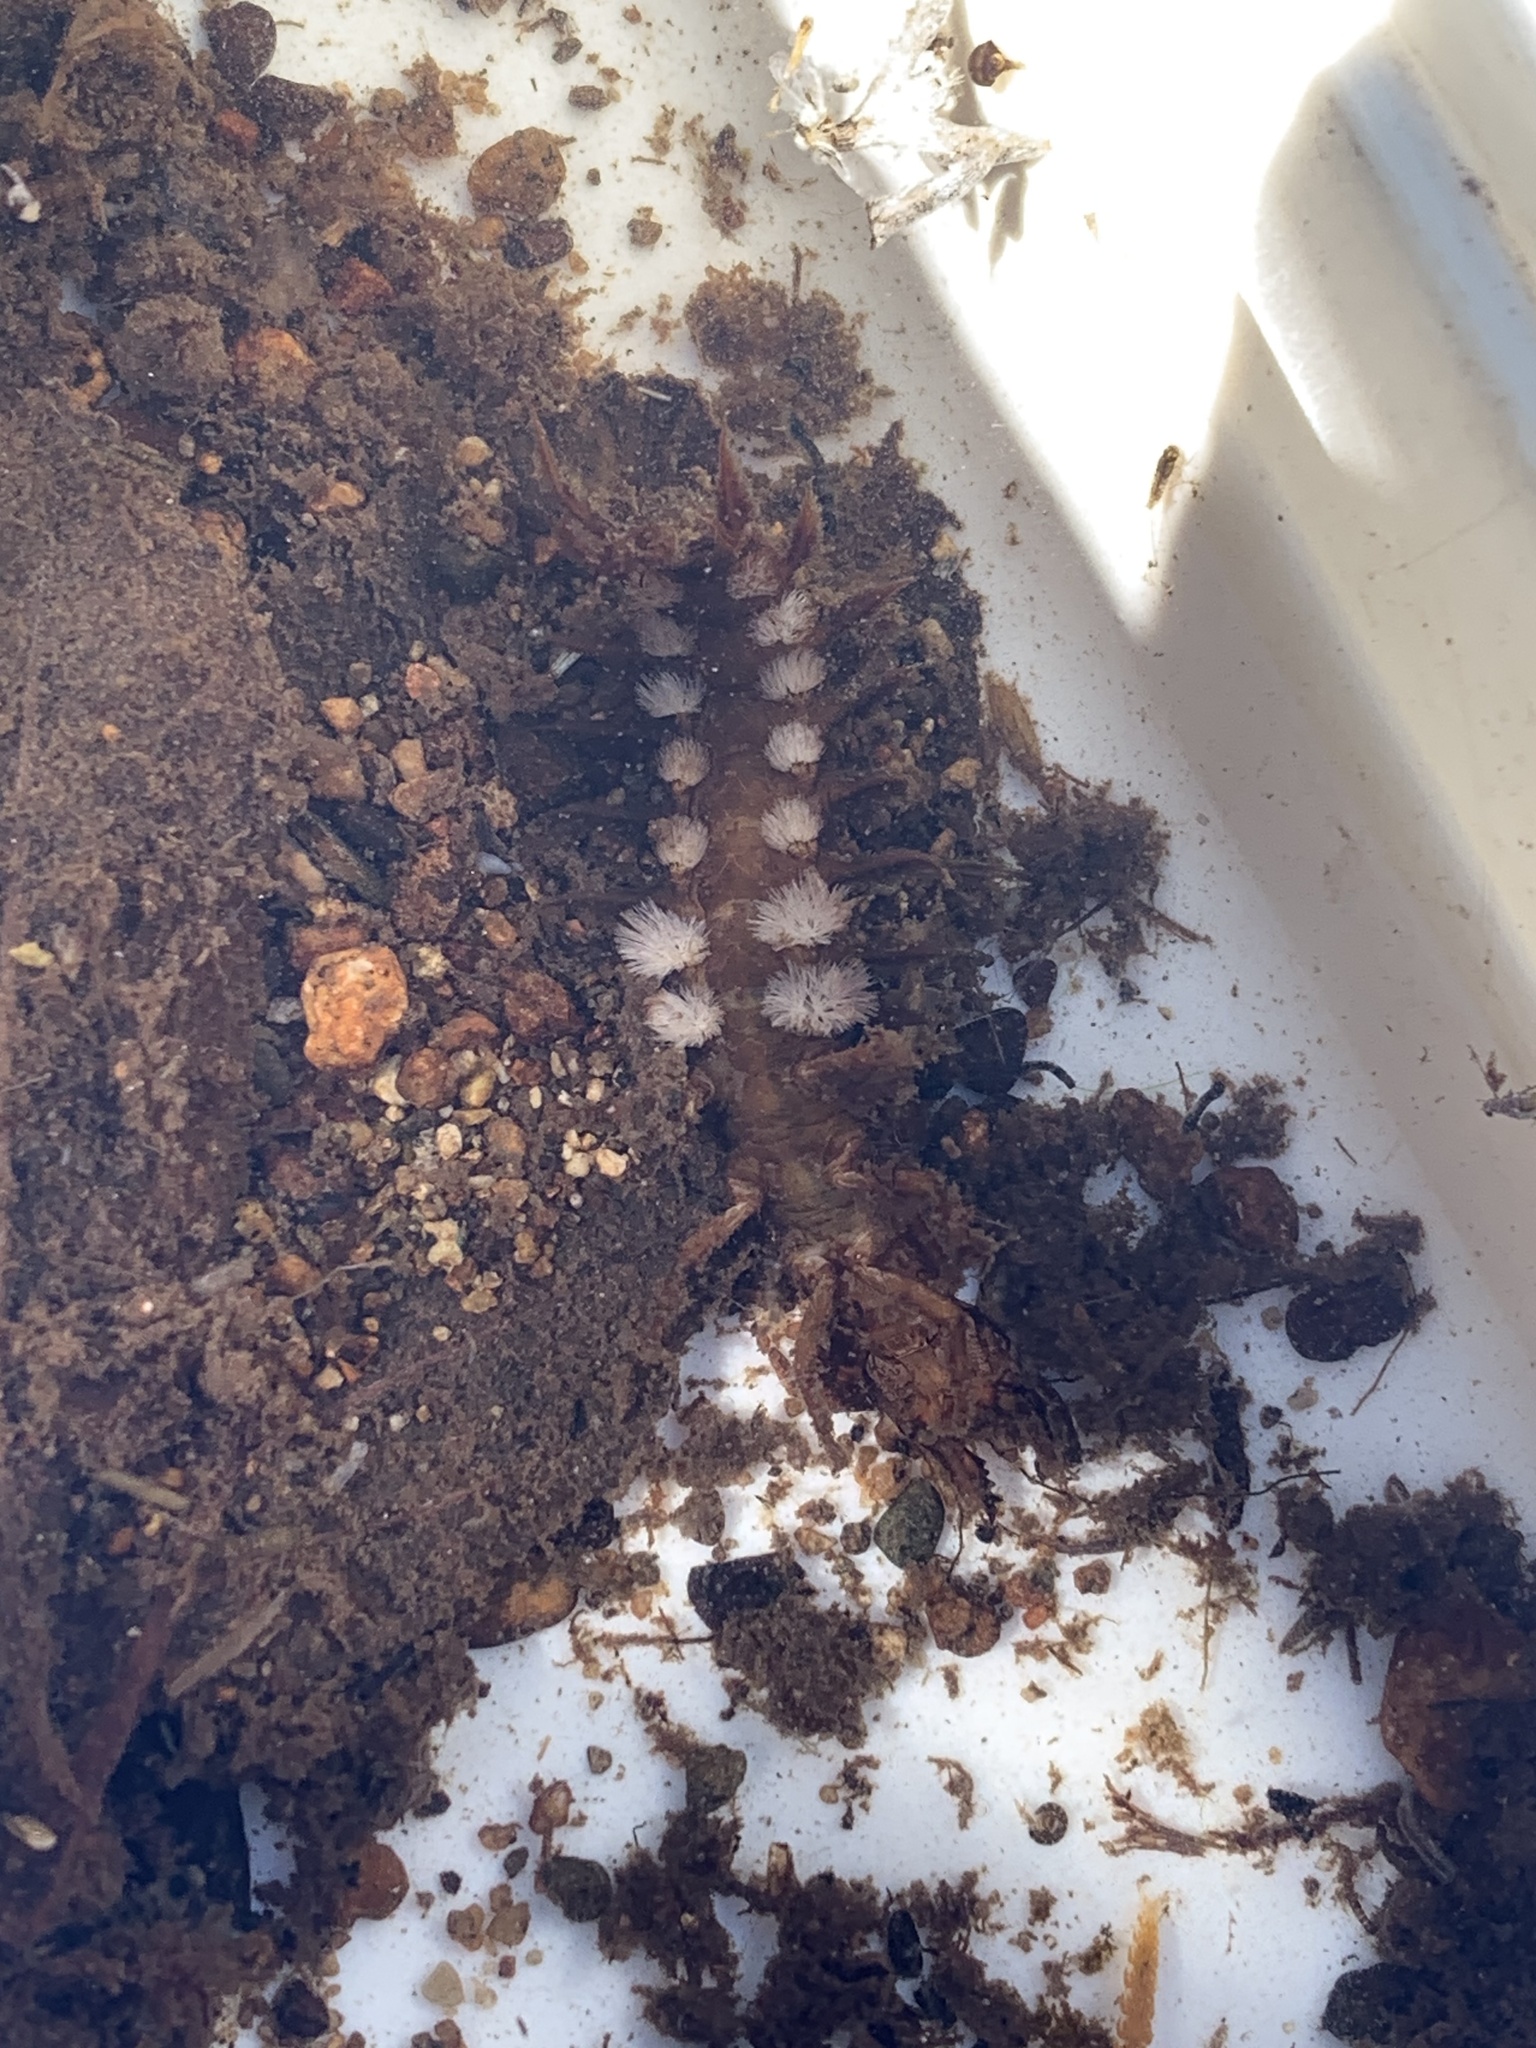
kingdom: Animalia
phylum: Arthropoda
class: Insecta
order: Megaloptera
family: Corydalidae
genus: Corydalus
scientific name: Corydalus texanus
